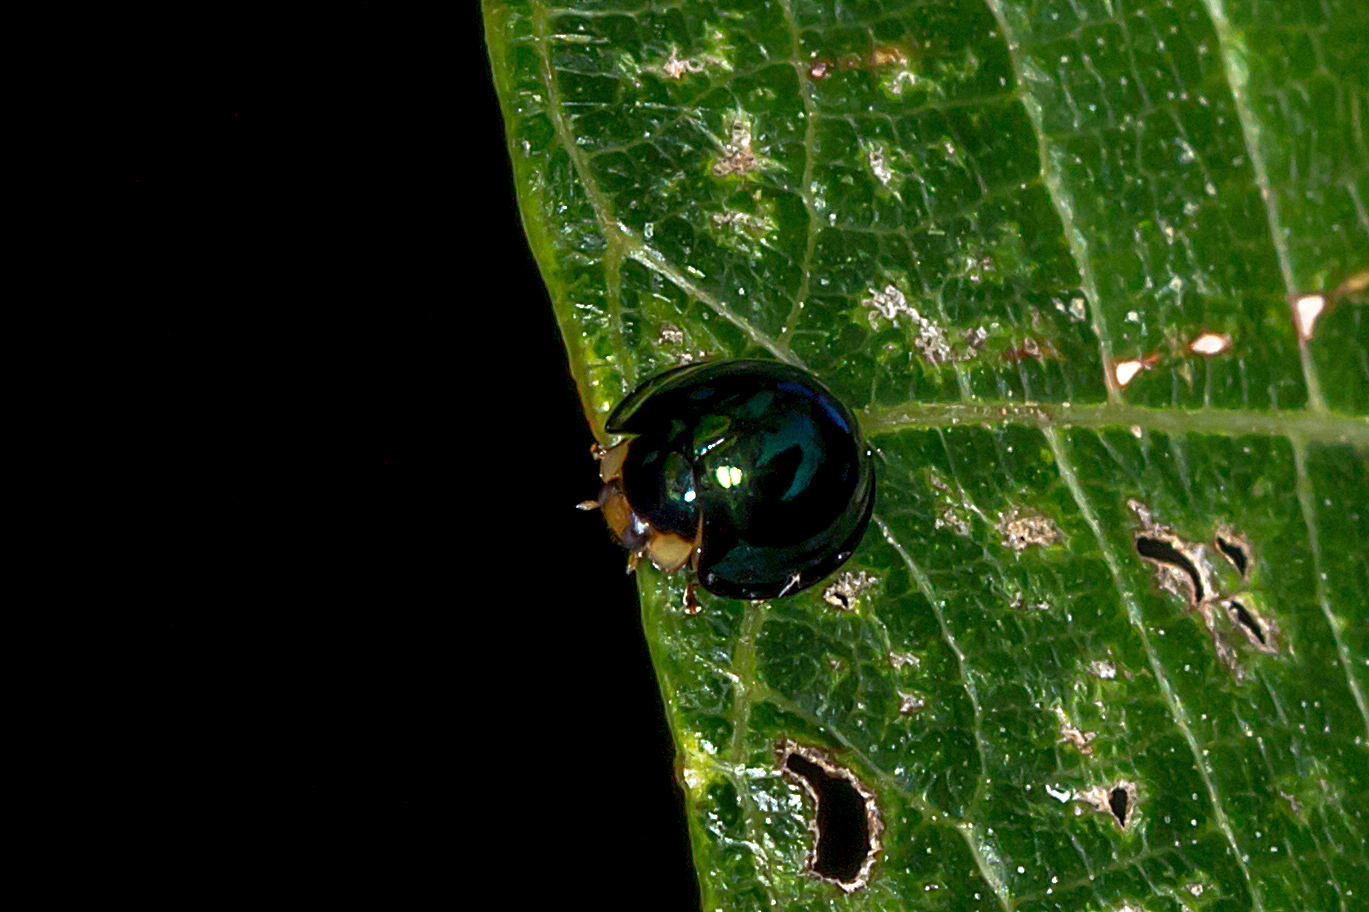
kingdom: Animalia
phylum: Arthropoda
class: Insecta
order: Coleoptera
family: Coccinellidae
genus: Halmus
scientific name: Halmus chalybeus
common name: Steel blue ladybird beetle
